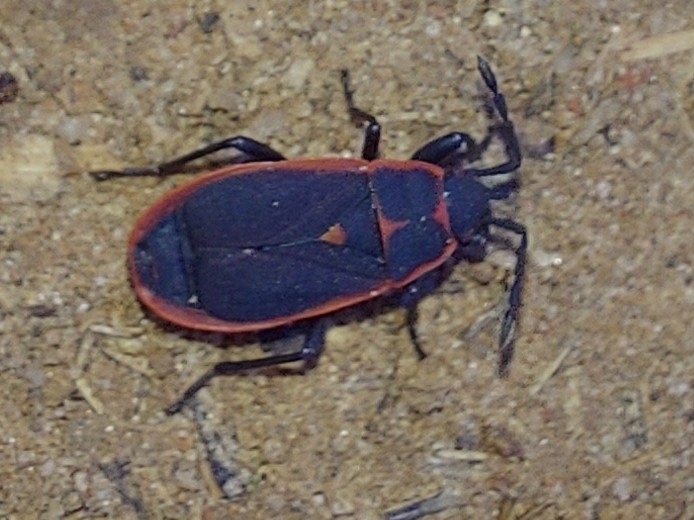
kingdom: Animalia
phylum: Arthropoda
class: Insecta
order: Hemiptera
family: Pyrrhocoridae
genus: Scantius
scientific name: Scantius forsteri
